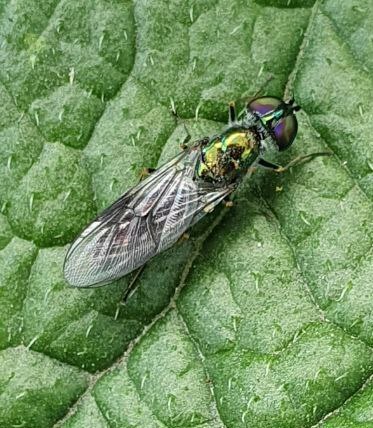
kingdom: Animalia
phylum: Arthropoda
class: Insecta
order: Diptera
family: Stratiomyidae
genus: Sargus
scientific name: Sargus cuprarius
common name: Soldier fly
